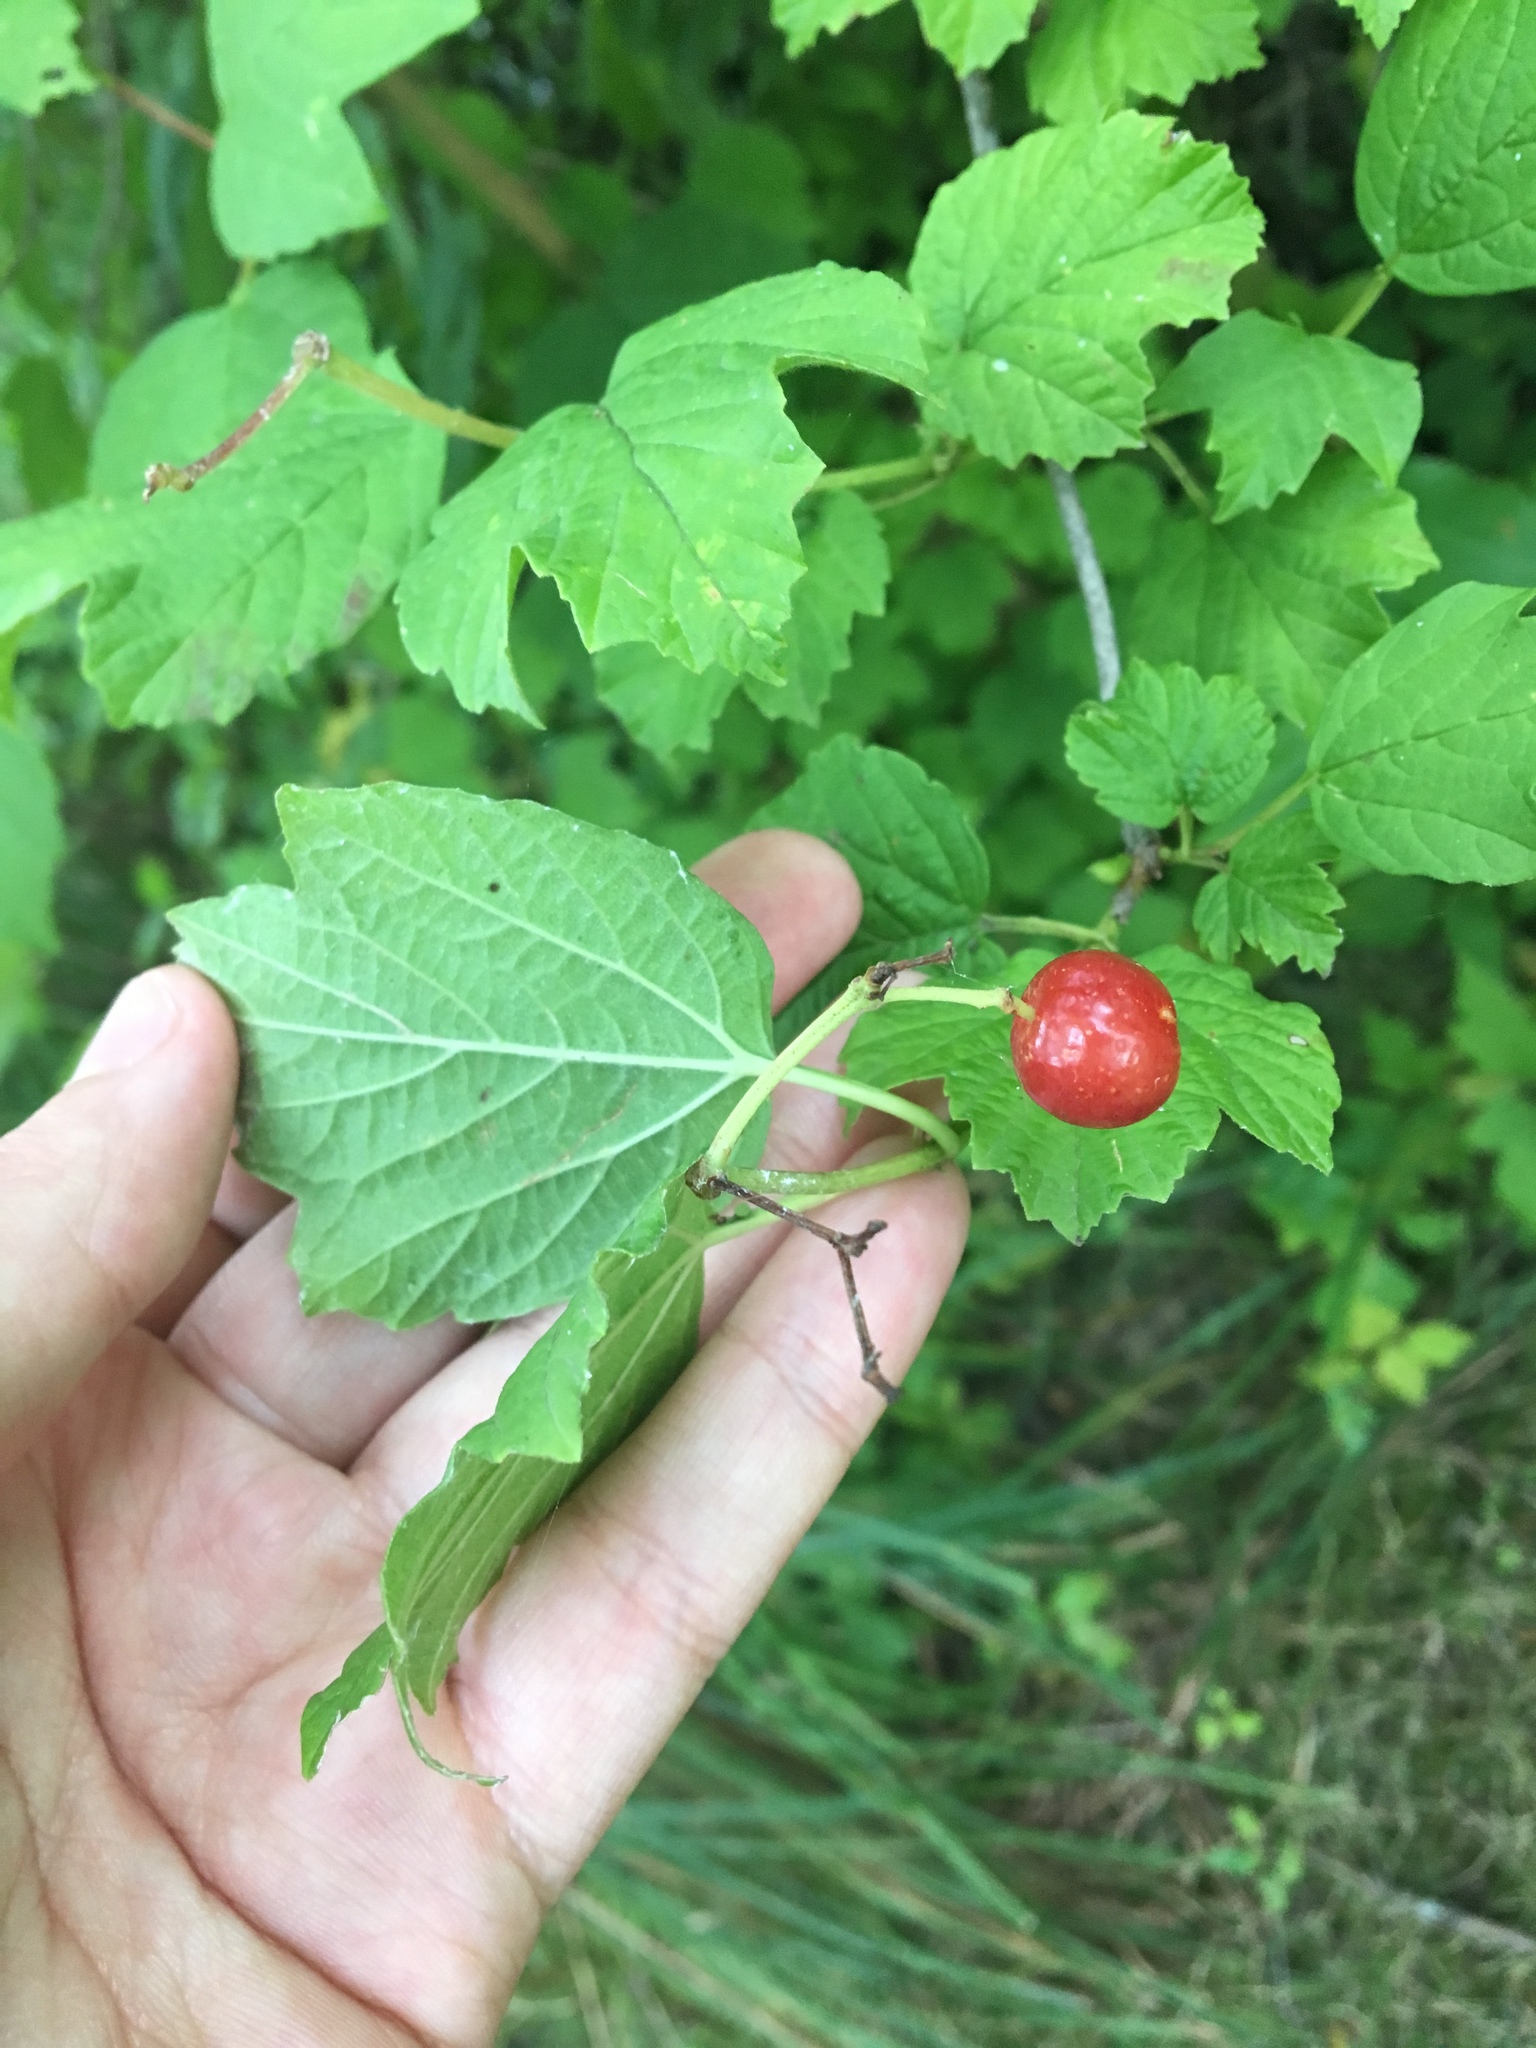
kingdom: Plantae
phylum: Tracheophyta
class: Magnoliopsida
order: Dipsacales
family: Viburnaceae
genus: Viburnum
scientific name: Viburnum opulus
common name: Guelder-rose
